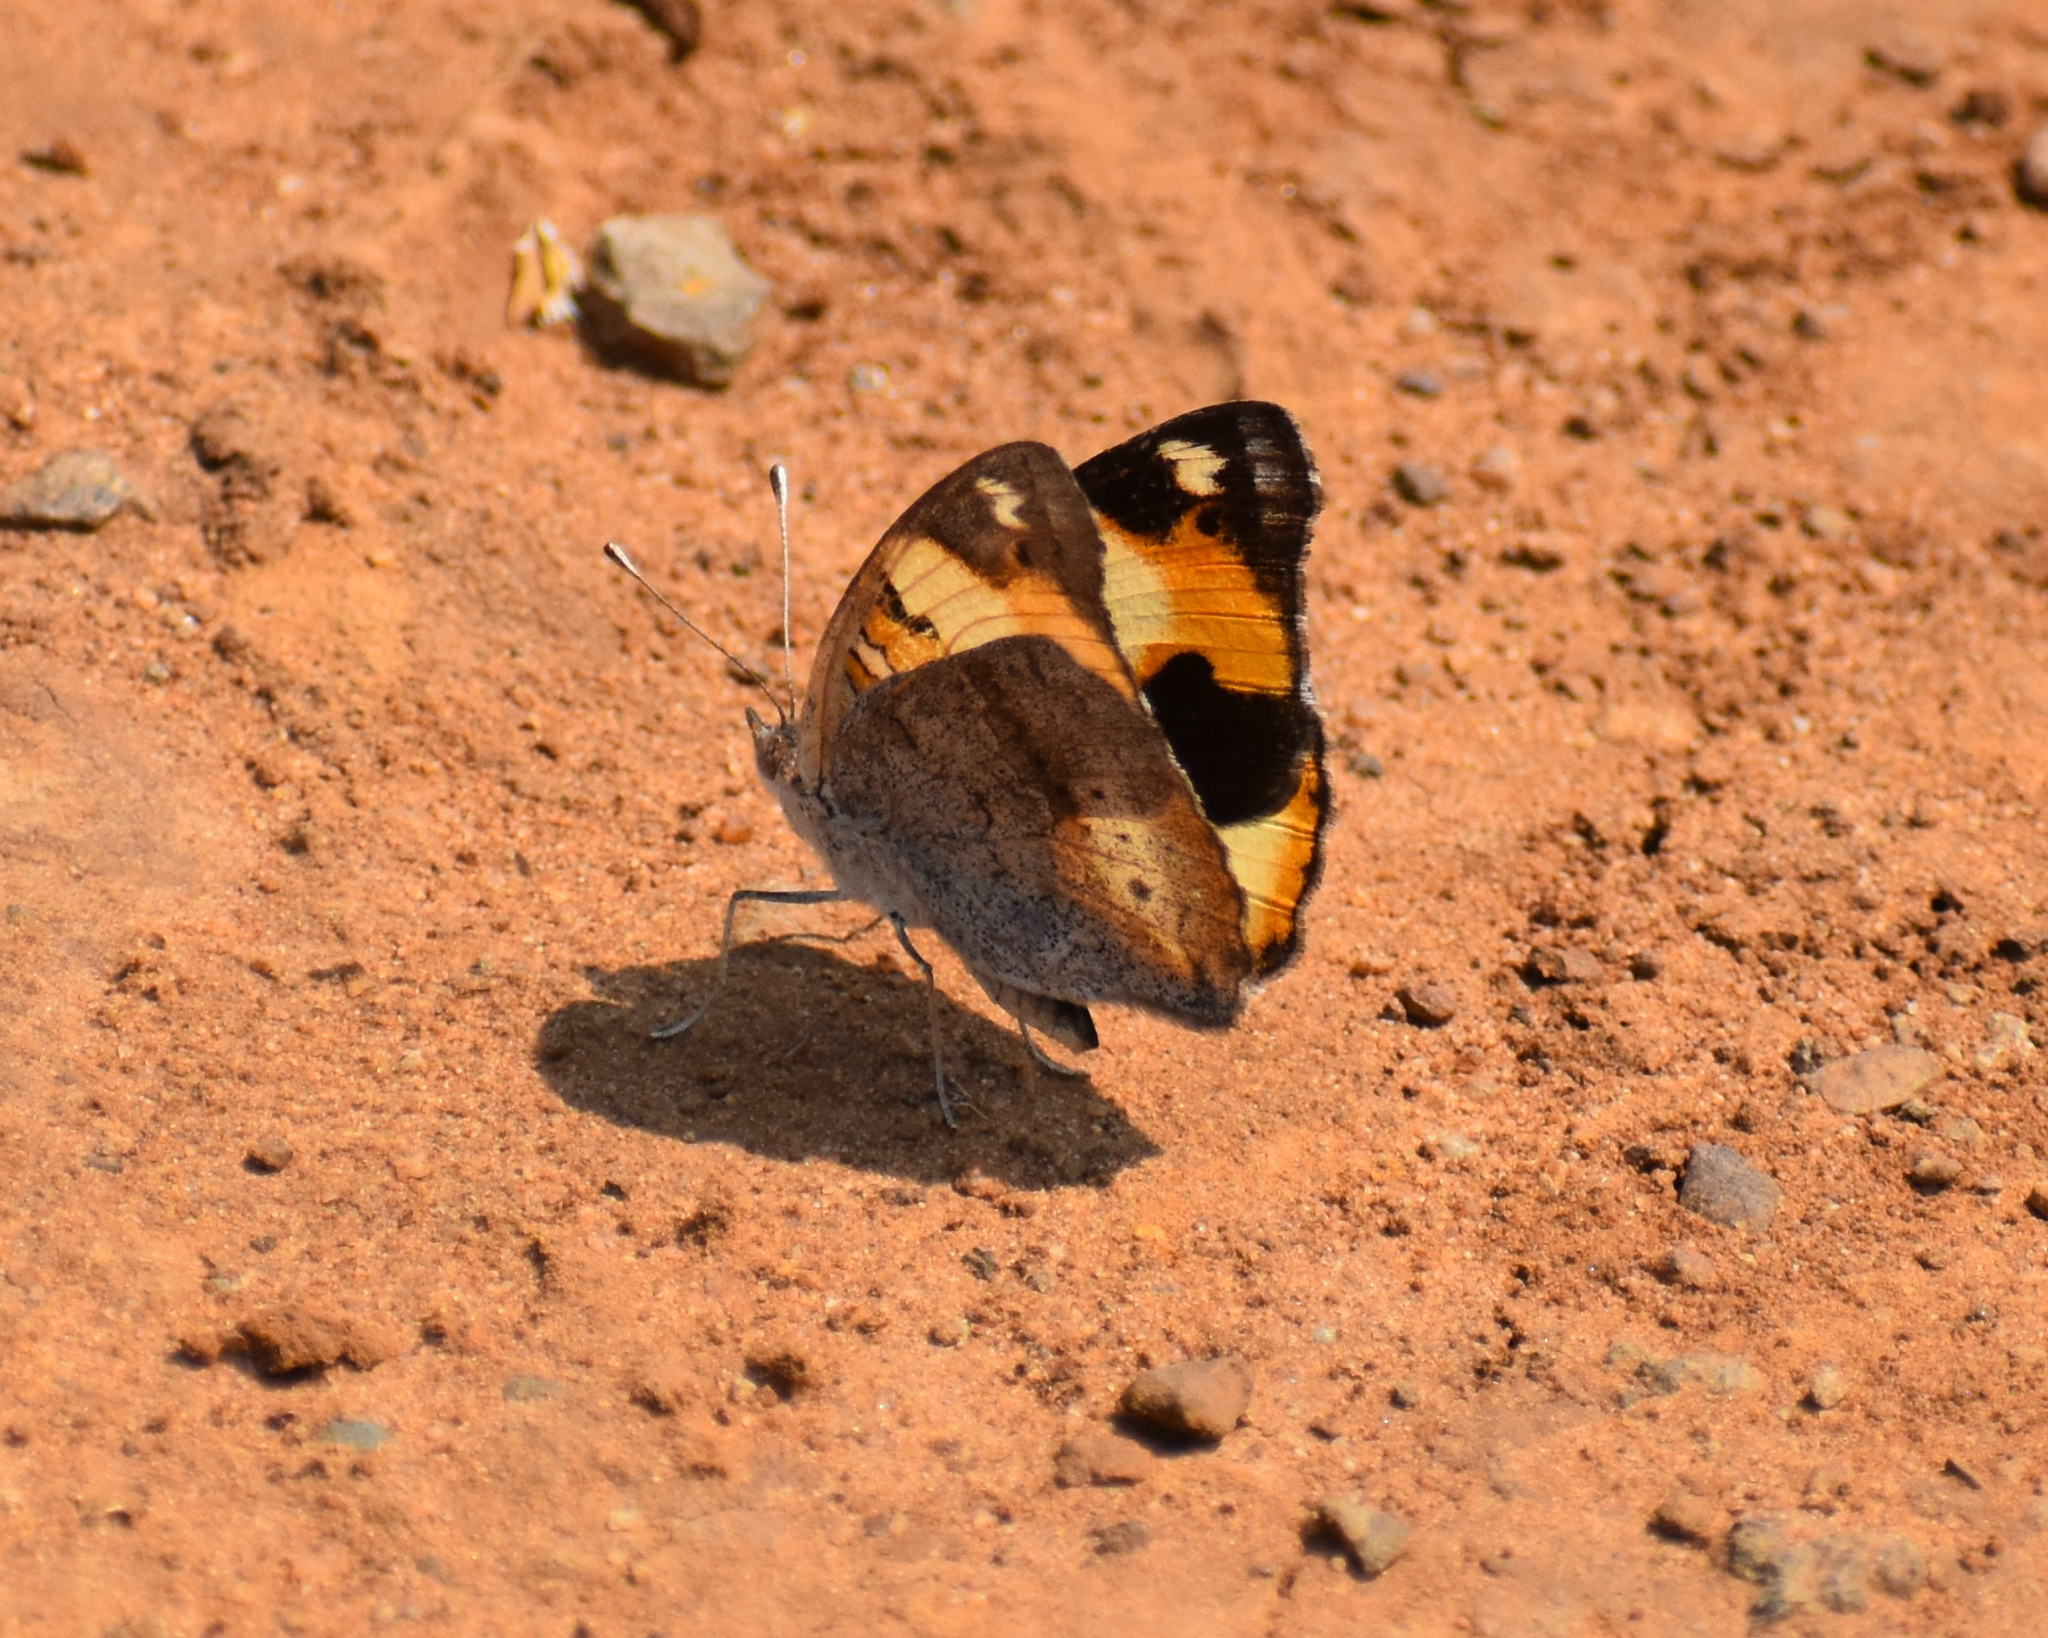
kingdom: Animalia
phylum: Arthropoda
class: Insecta
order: Lepidoptera
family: Nymphalidae
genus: Junonia
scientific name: Junonia hierta
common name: Yellow pansy
